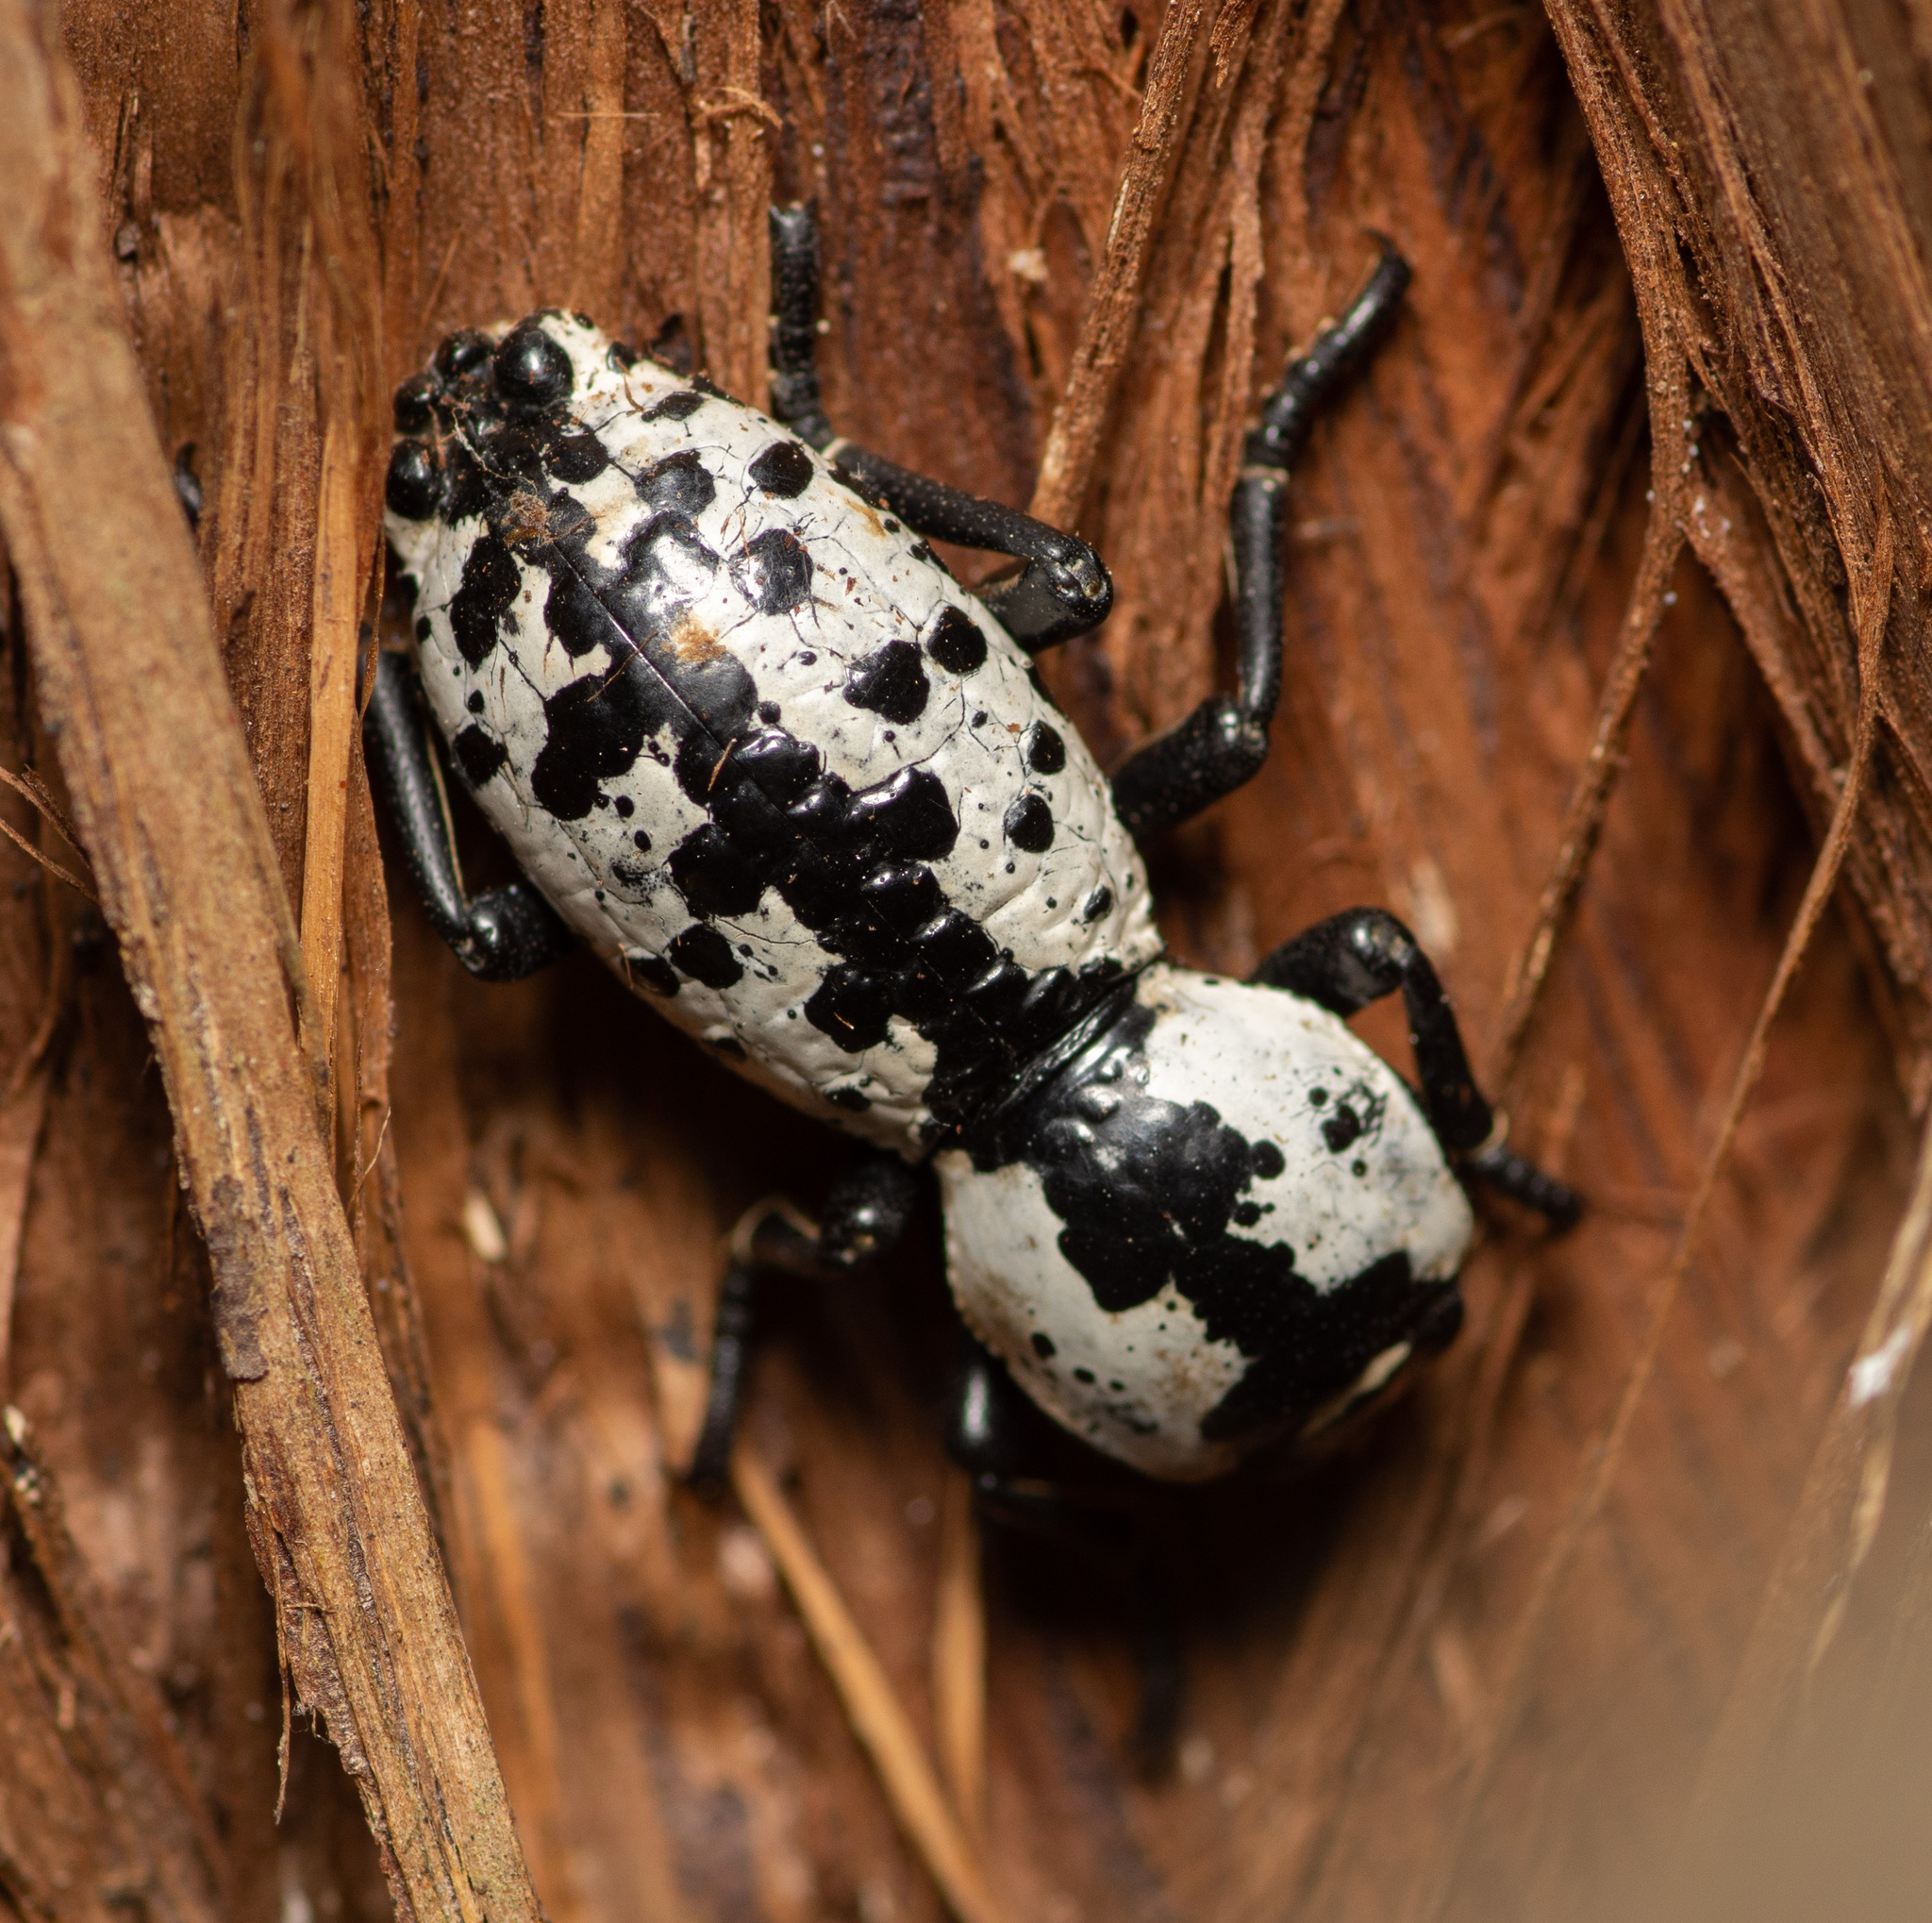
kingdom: Animalia
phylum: Arthropoda
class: Insecta
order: Coleoptera
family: Zopheridae
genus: Zopherus
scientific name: Zopherus nodulosus
